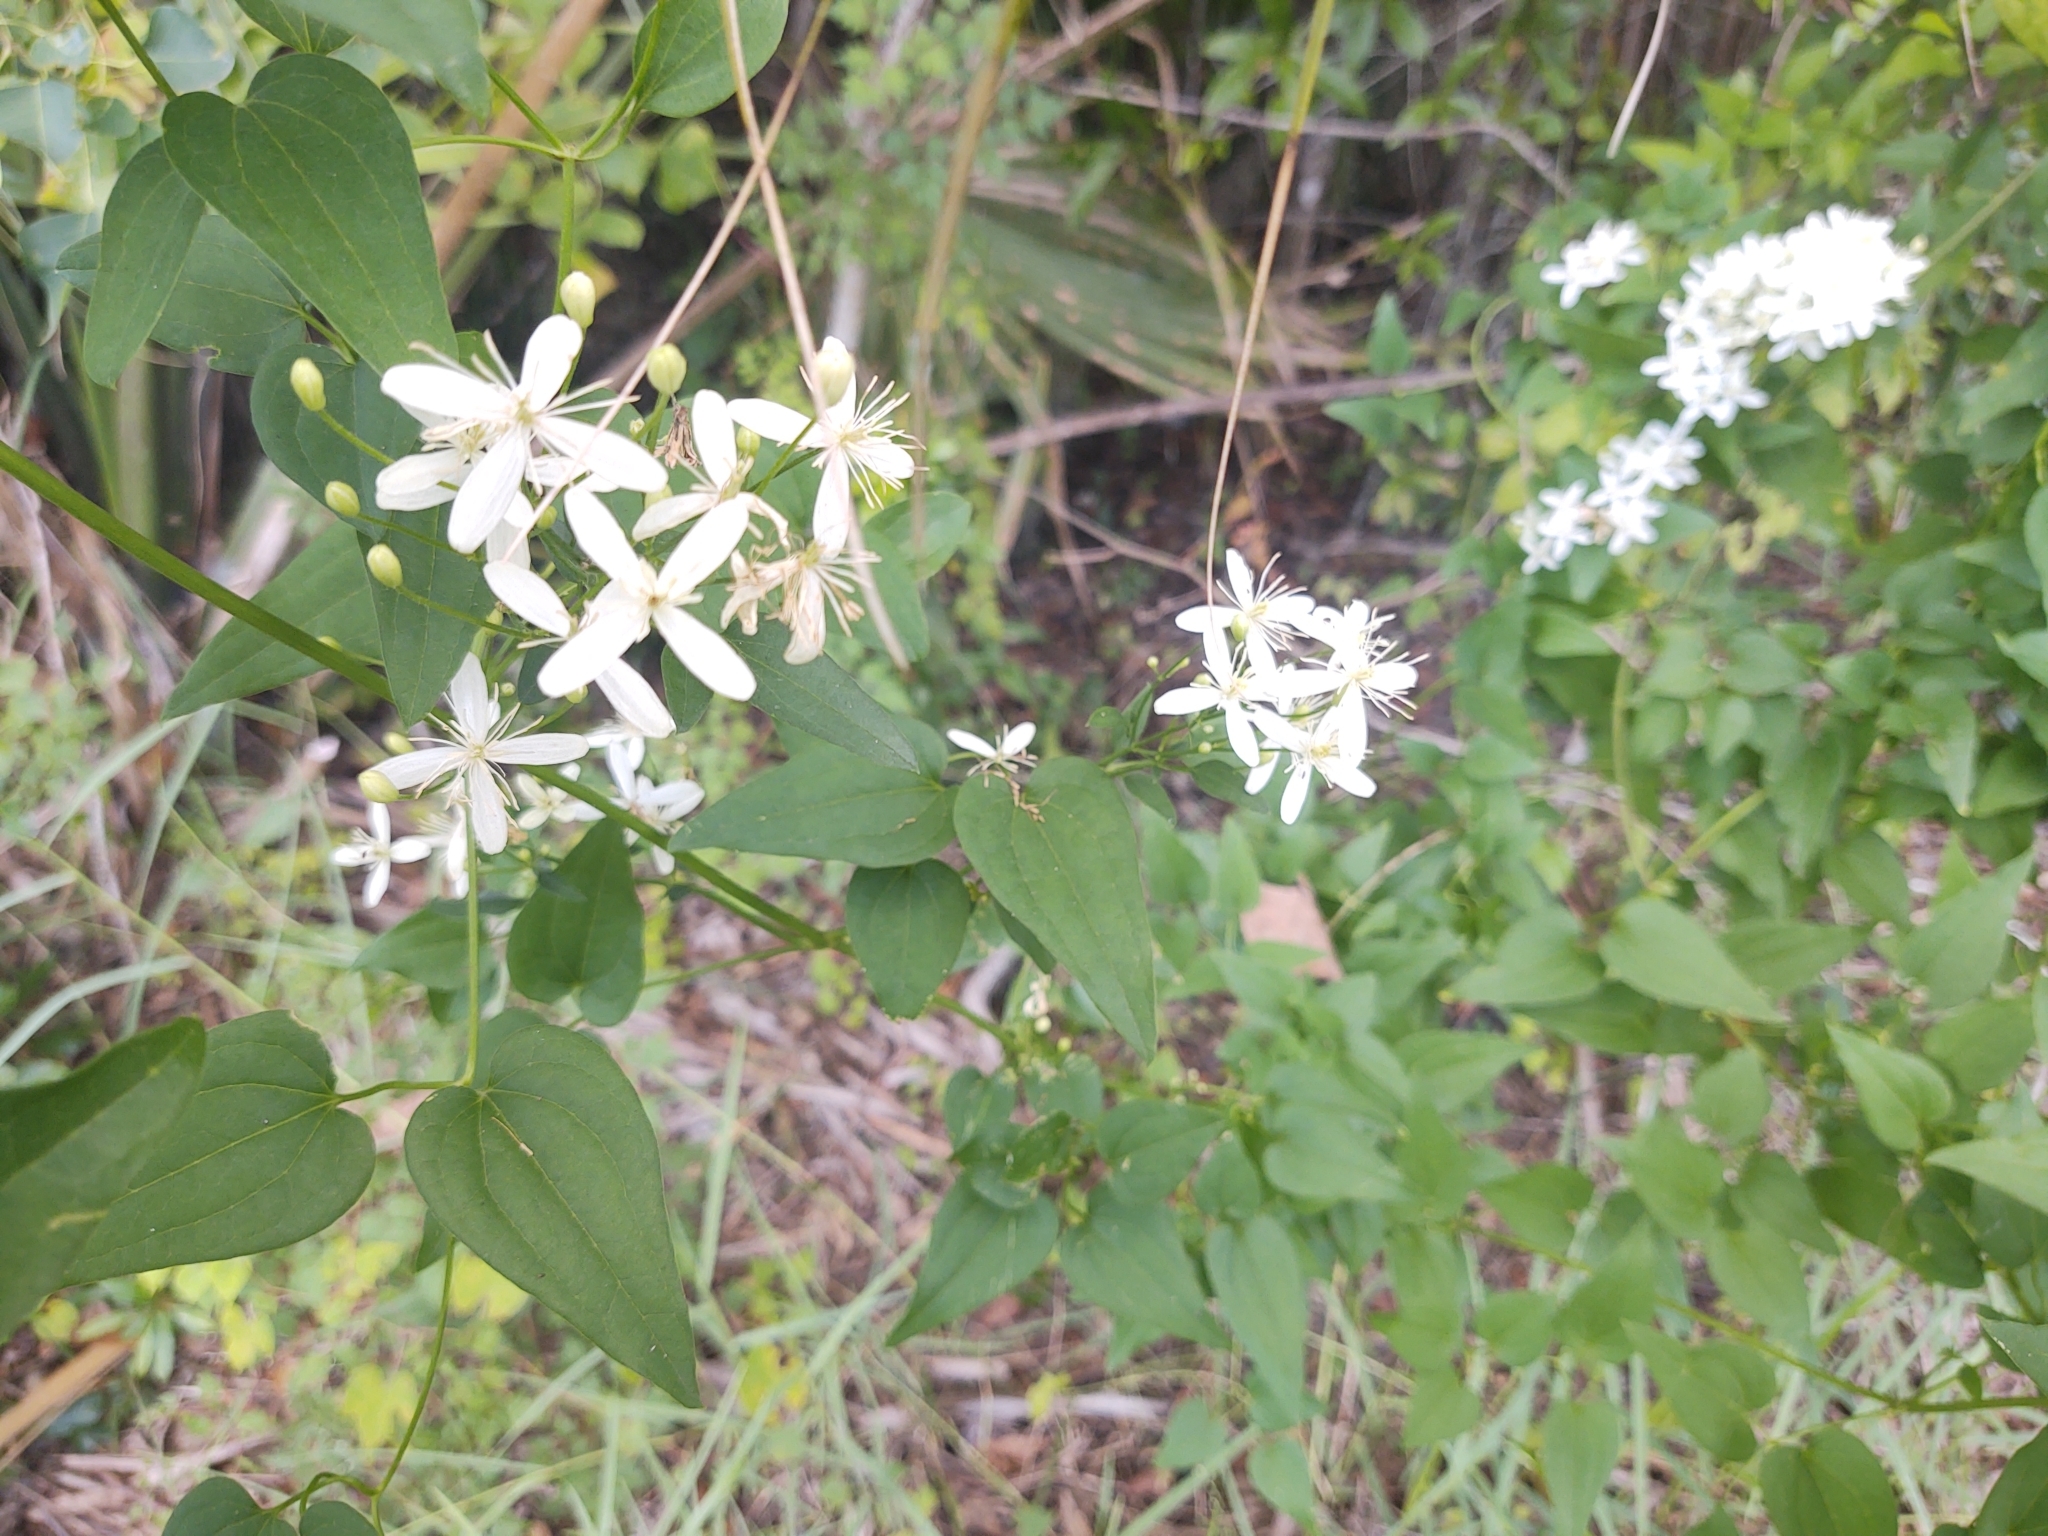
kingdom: Plantae
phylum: Tracheophyta
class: Magnoliopsida
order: Ranunculales
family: Ranunculaceae
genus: Clematis
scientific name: Clematis terniflora
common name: Sweet autumn clematis
